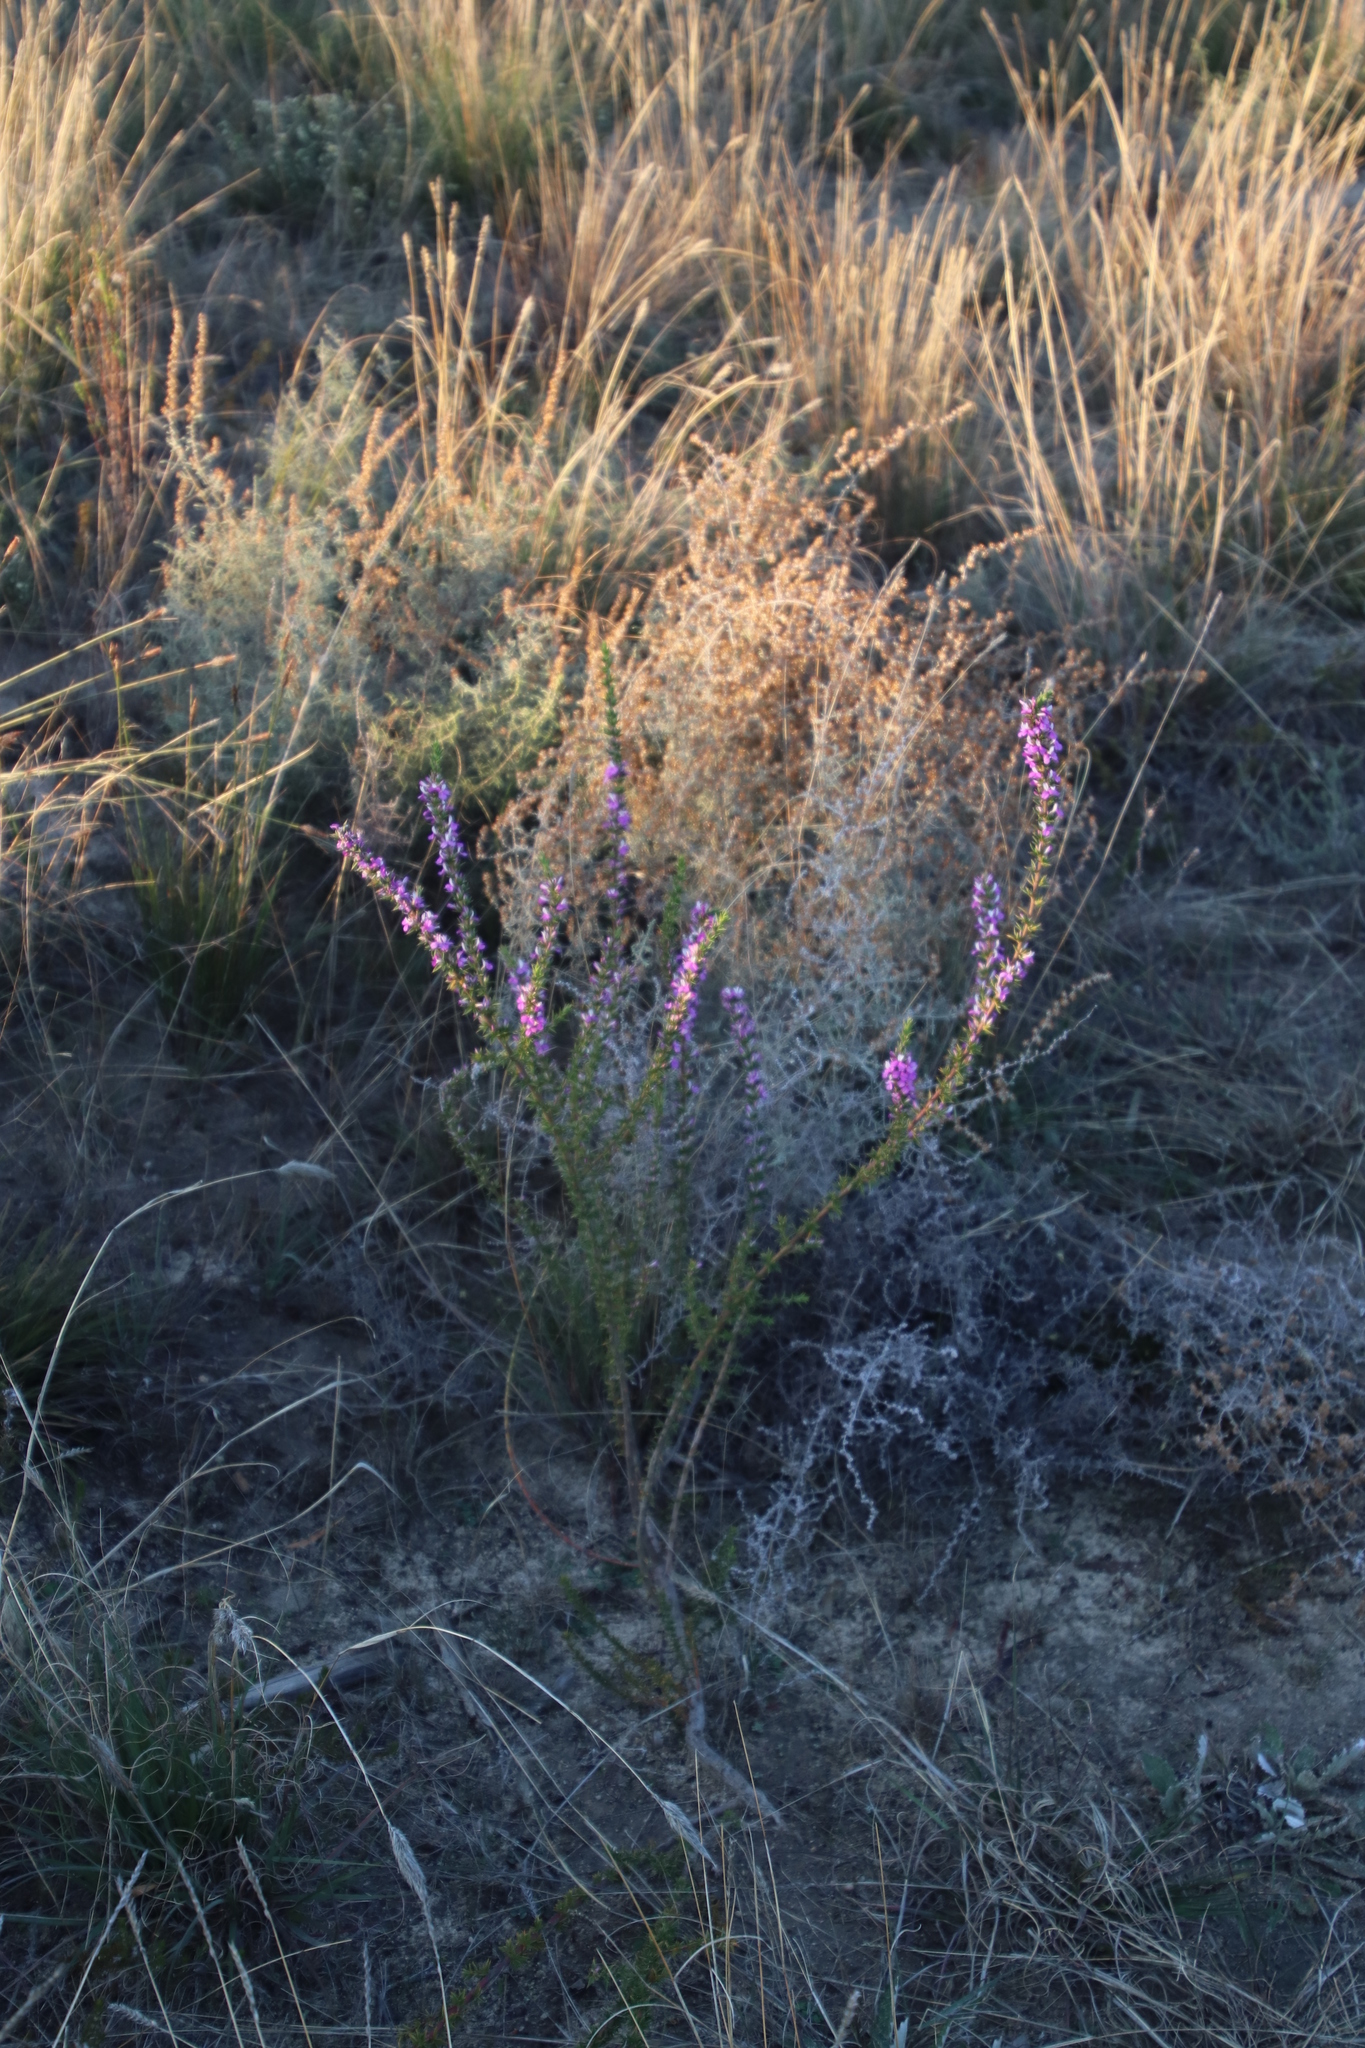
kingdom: Plantae
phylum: Tracheophyta
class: Magnoliopsida
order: Fabales
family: Polygalaceae
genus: Muraltia
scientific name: Muraltia heisteria
